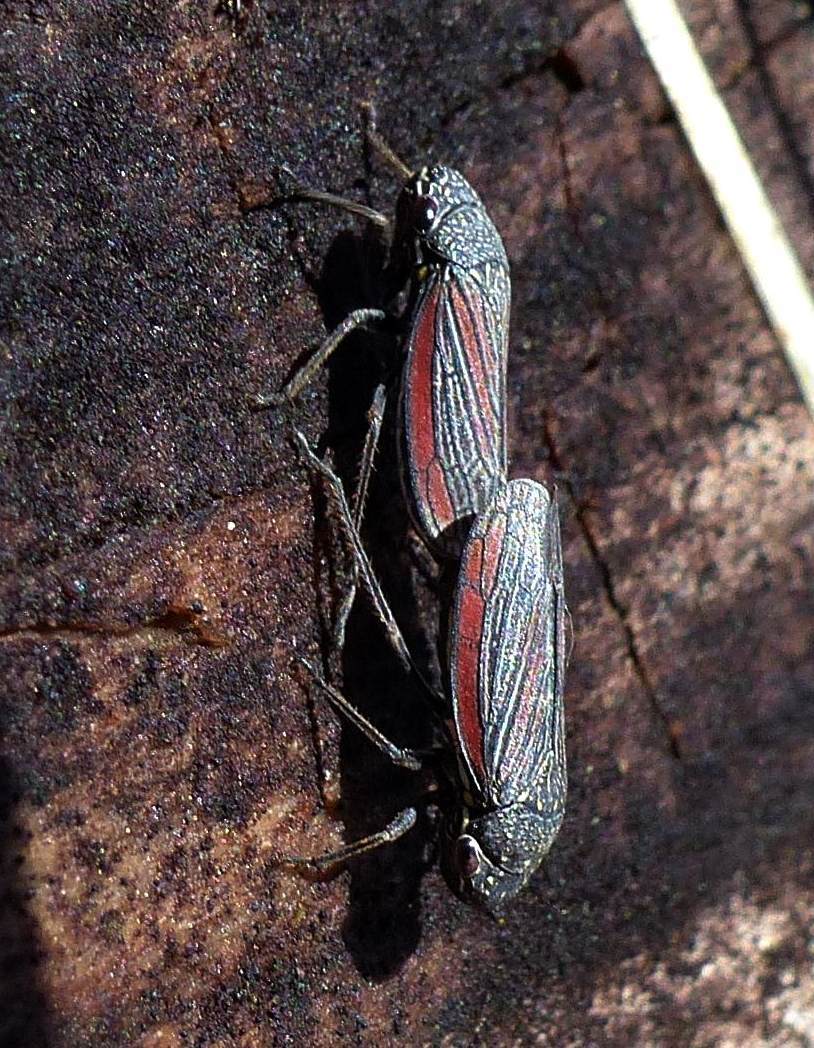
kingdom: Animalia
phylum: Arthropoda
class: Insecta
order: Hemiptera
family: Cicadellidae
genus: Cuerna
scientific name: Cuerna striata
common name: Striped leafhopper
